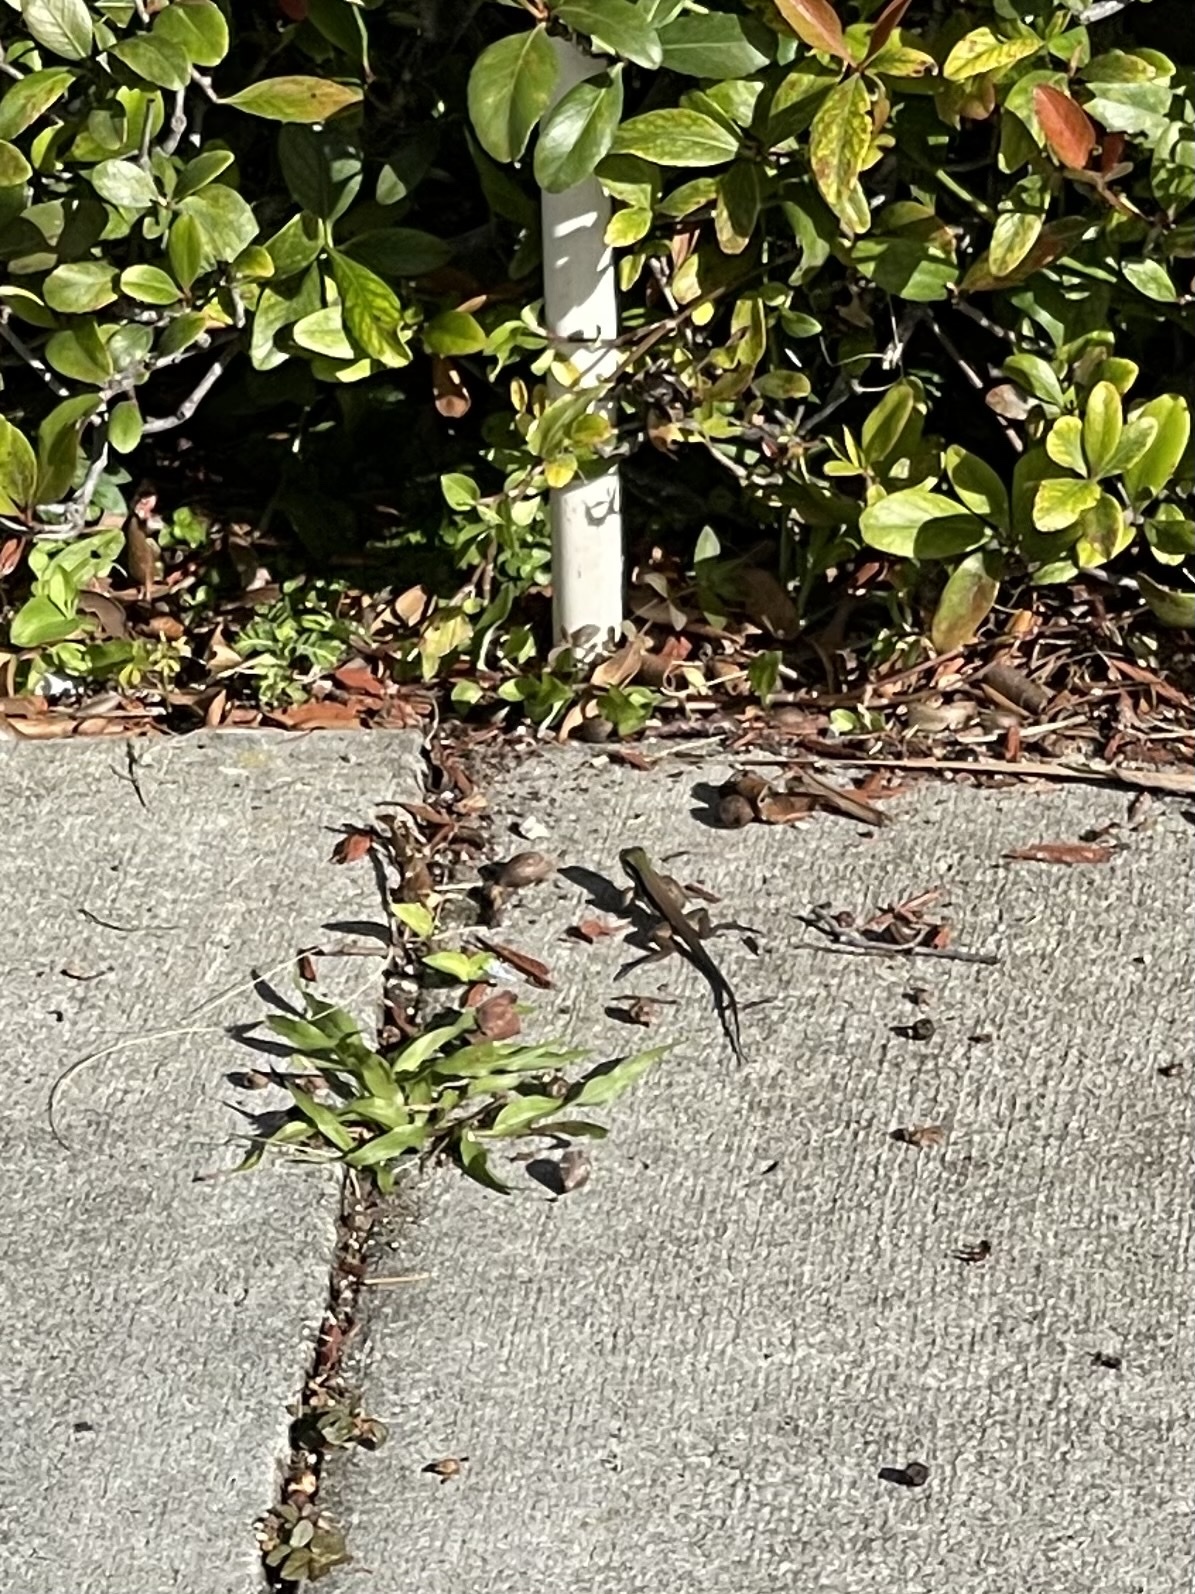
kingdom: Animalia
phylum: Chordata
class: Squamata
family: Teiidae
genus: Ameiva
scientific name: Ameiva ameiva
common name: Giant ameiva
